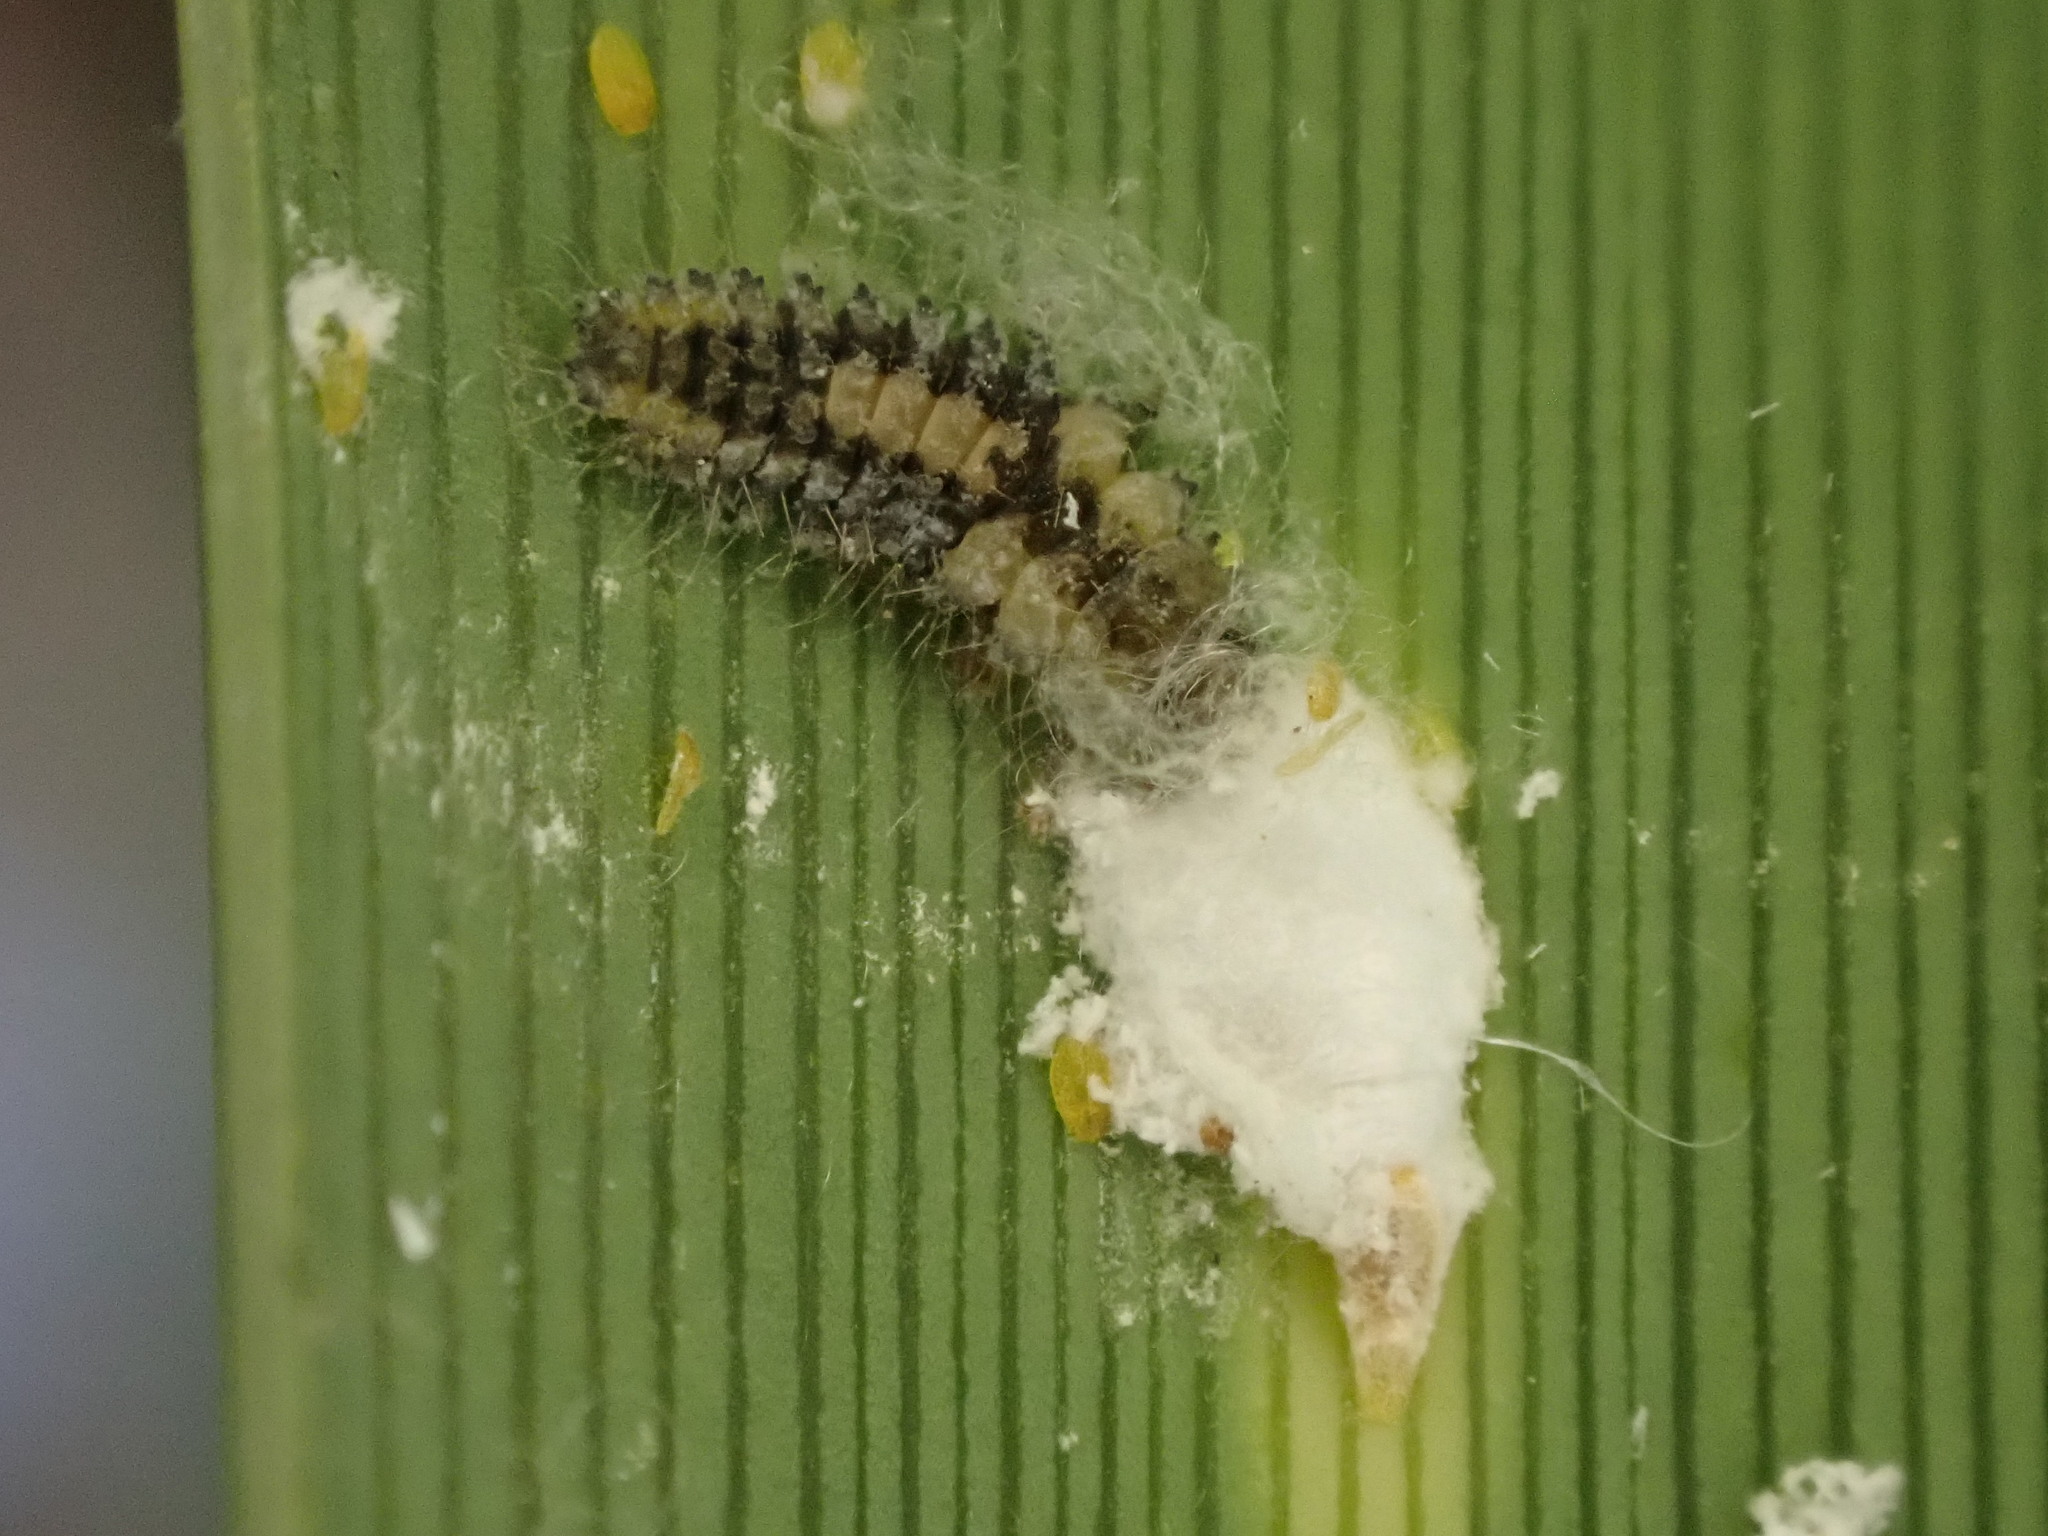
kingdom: Animalia
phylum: Arthropoda
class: Insecta
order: Coleoptera
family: Coccinellidae
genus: Rhyzobius
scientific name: Rhyzobius fagus
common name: Lady beetle
